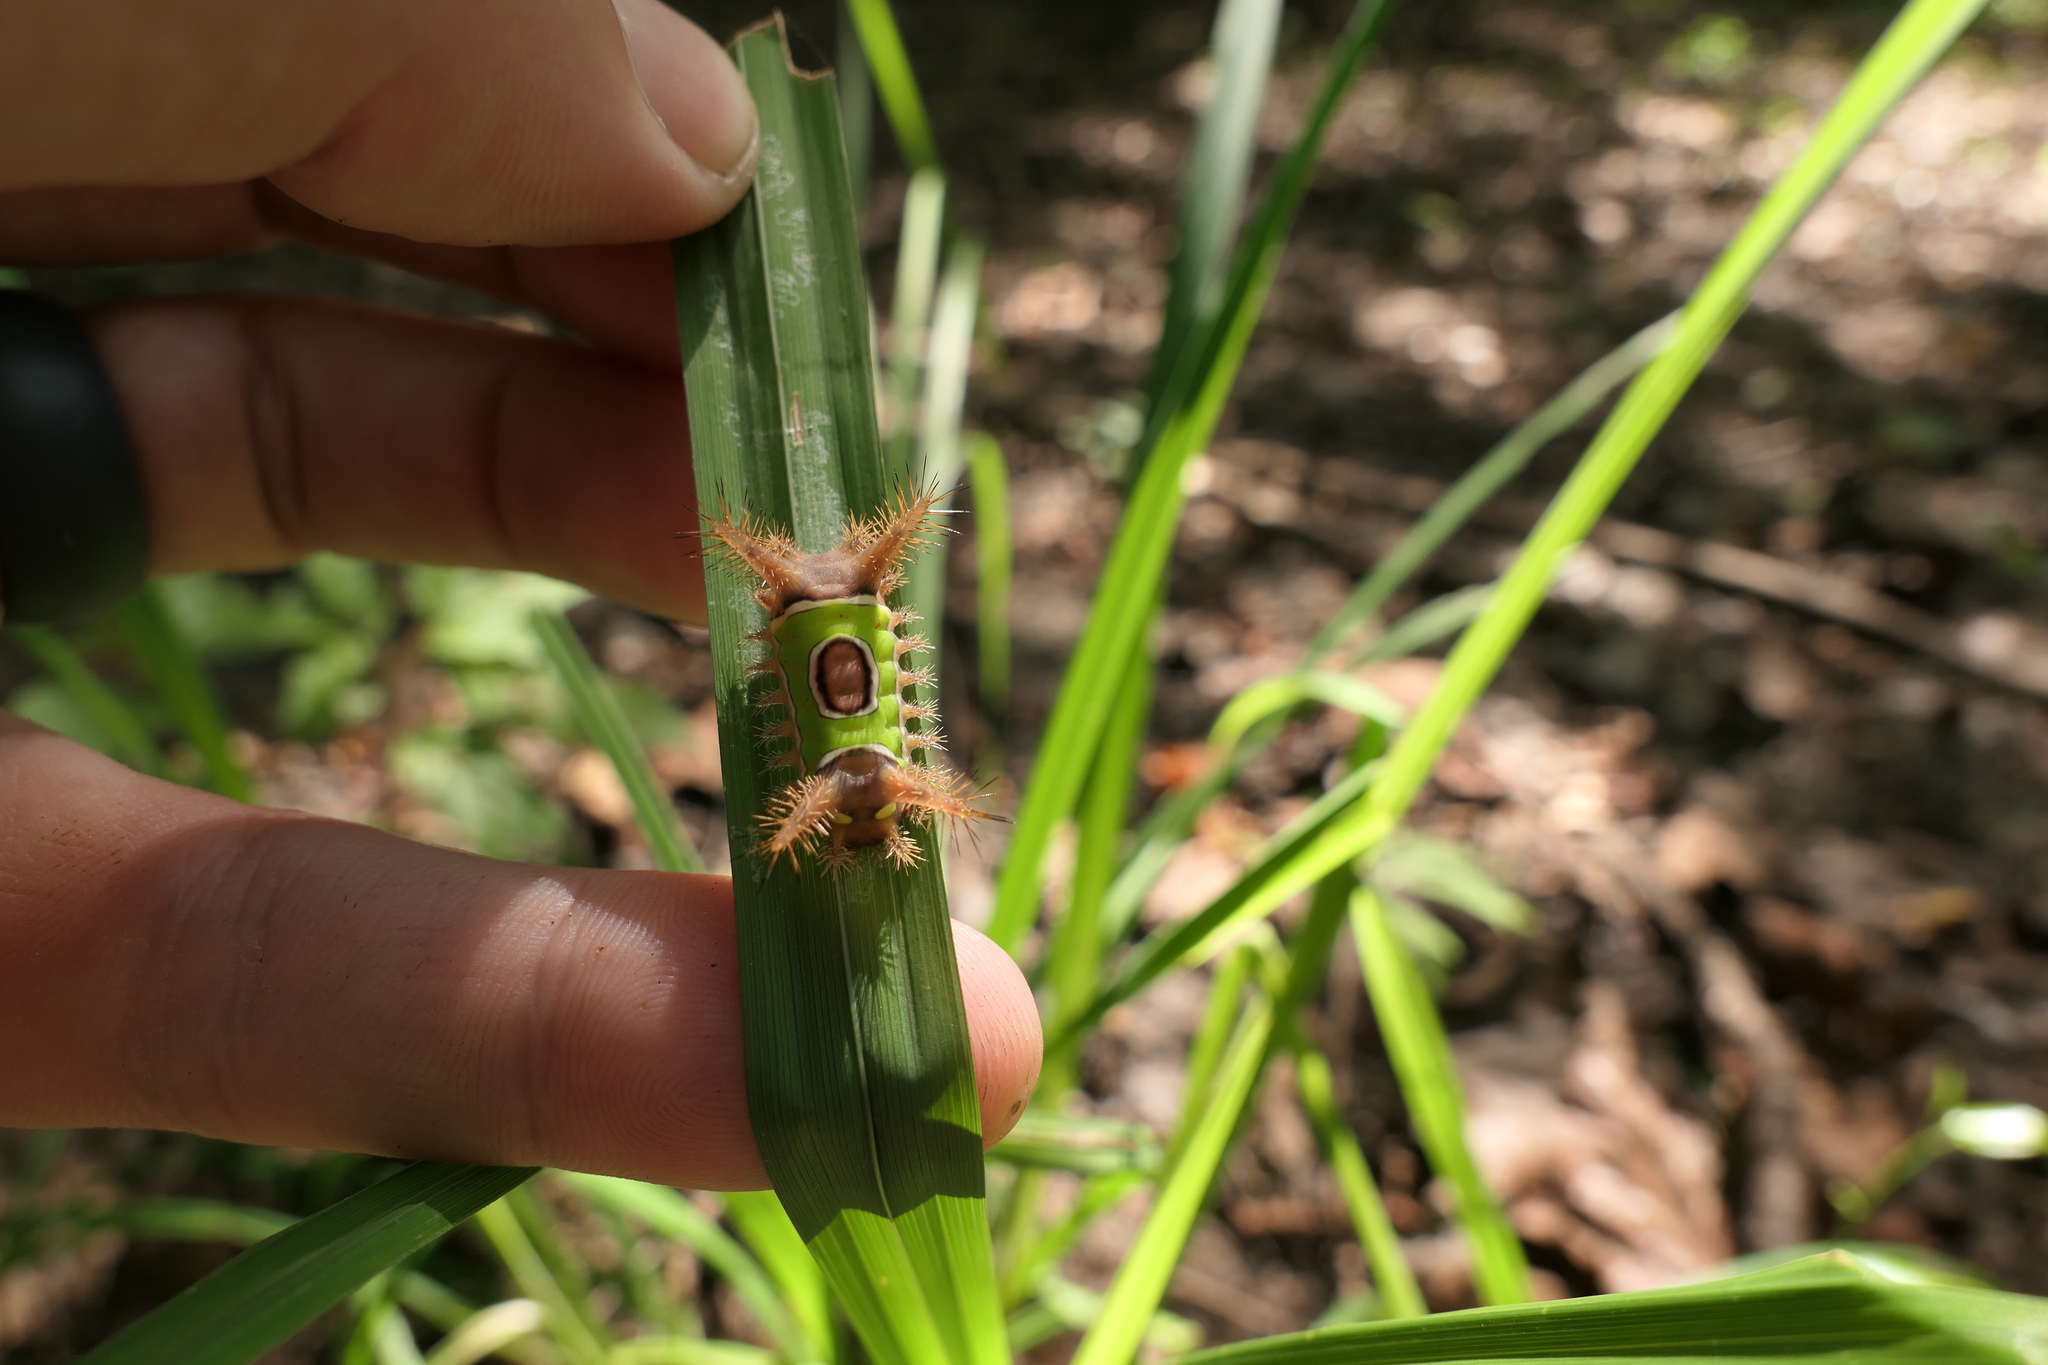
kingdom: Animalia
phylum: Arthropoda
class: Insecta
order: Lepidoptera
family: Limacodidae
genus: Acharia
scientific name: Acharia stimulea
